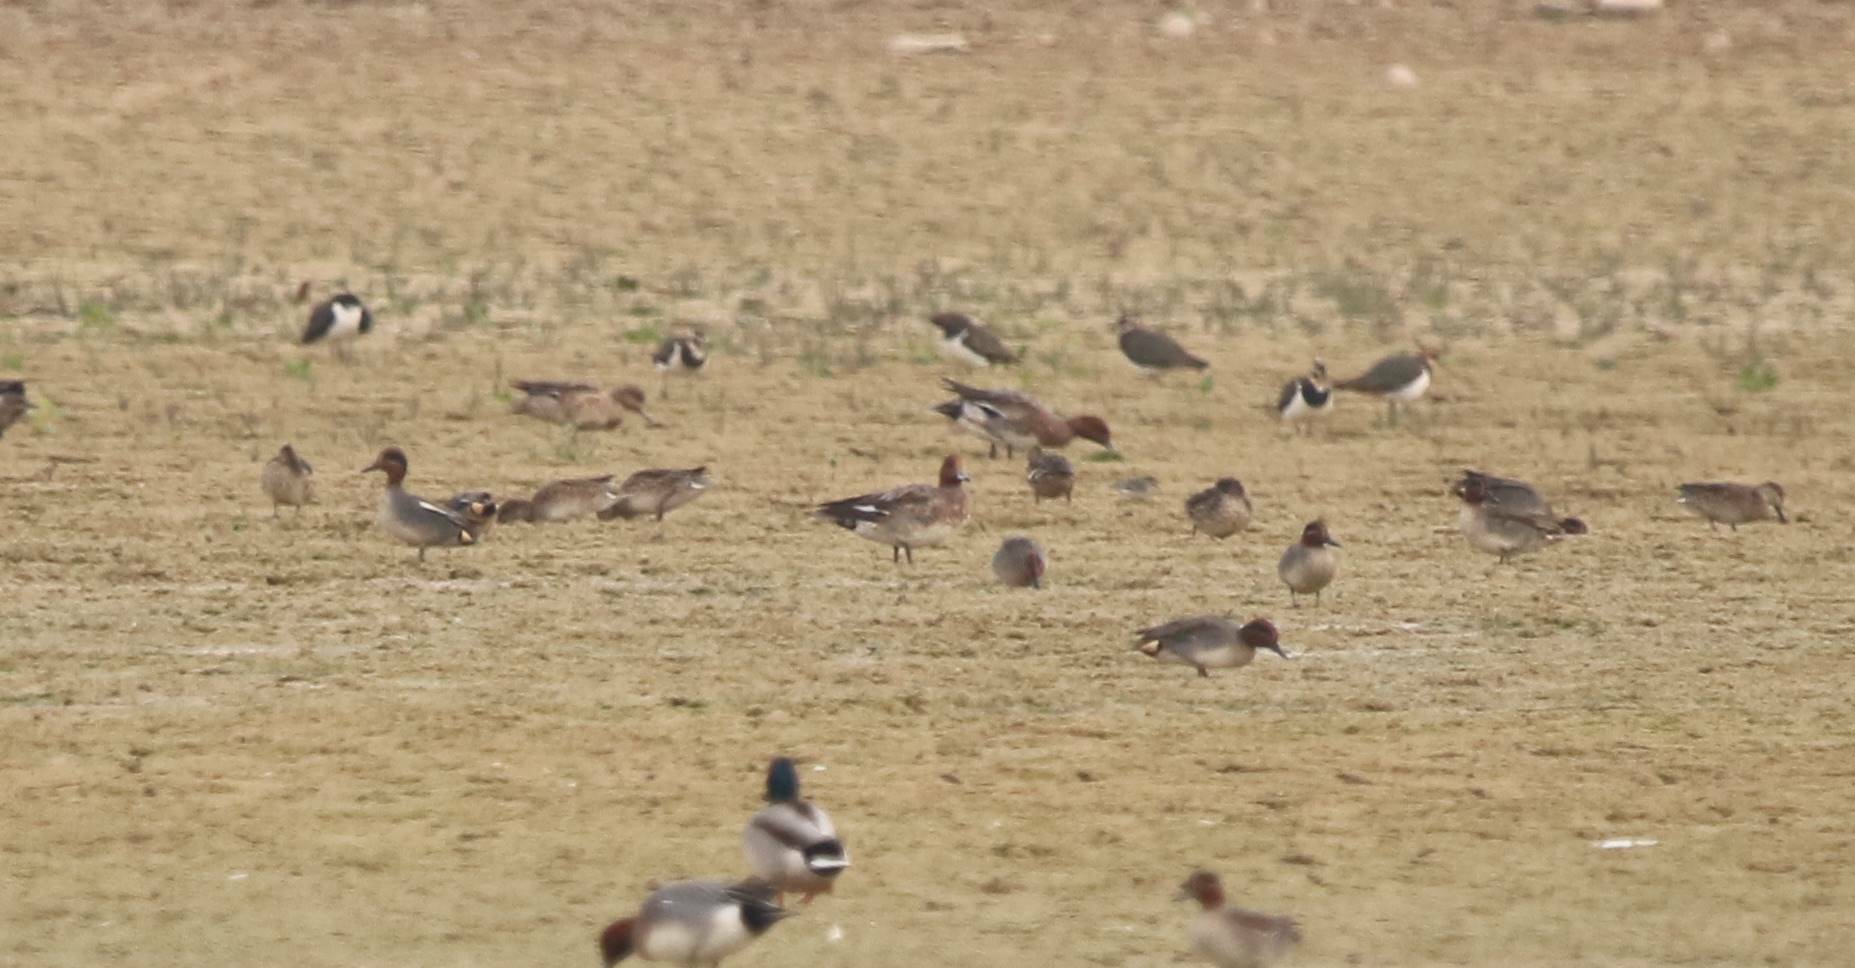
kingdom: Animalia
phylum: Chordata
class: Aves
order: Anseriformes
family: Anatidae
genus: Mareca
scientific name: Mareca penelope
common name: Eurasian wigeon
